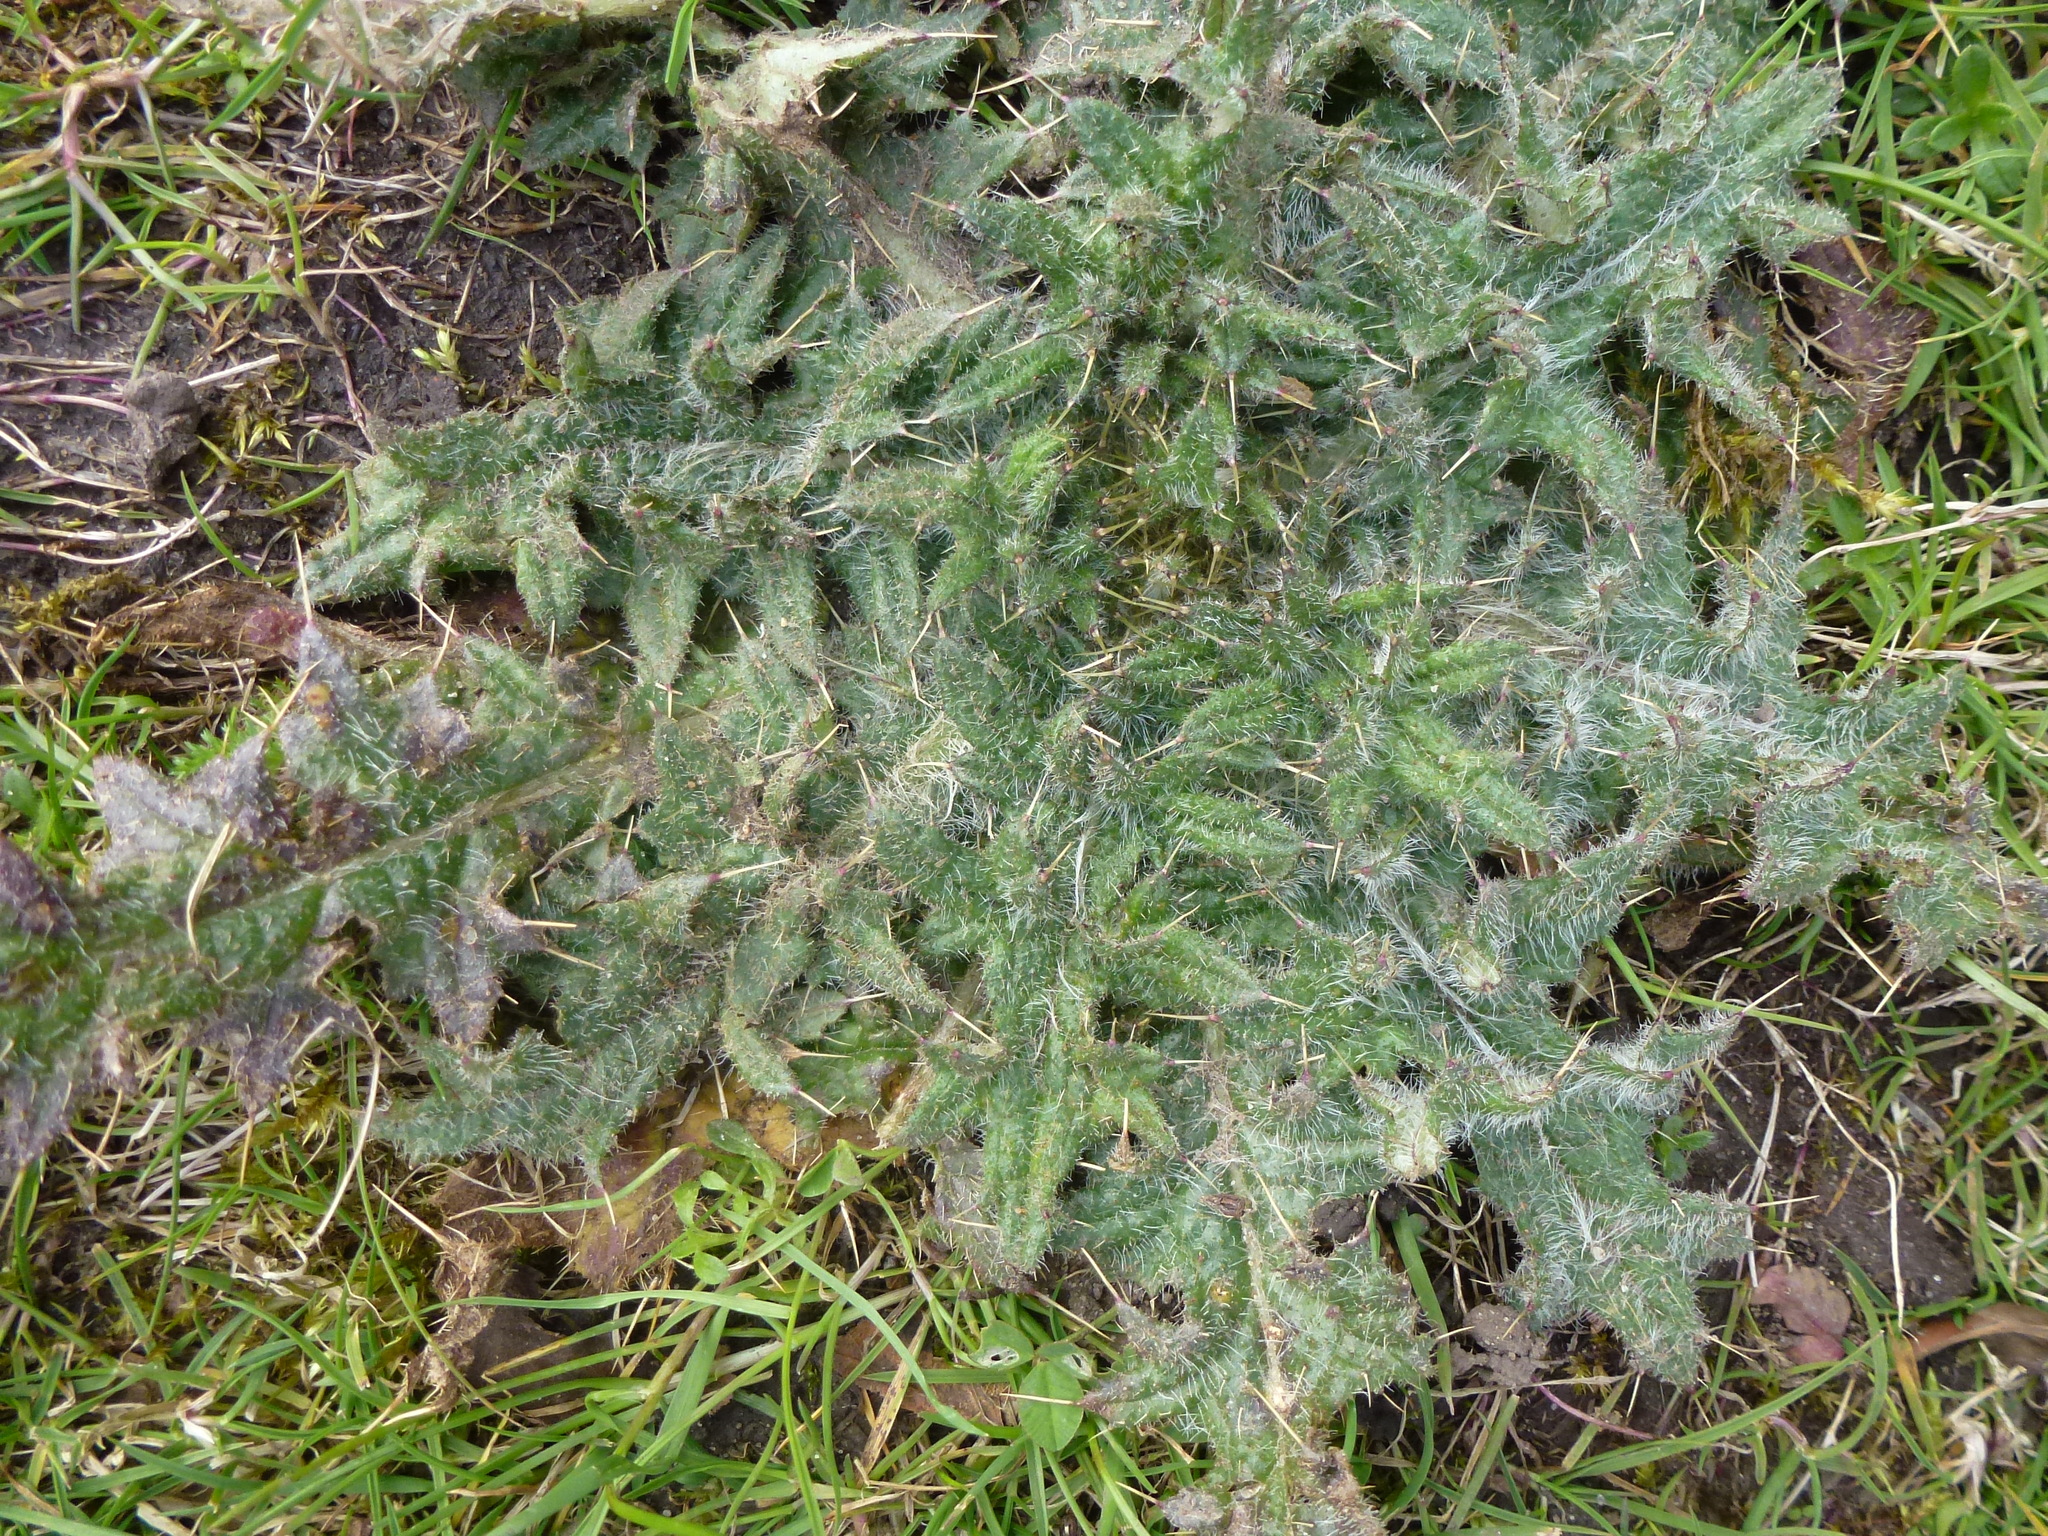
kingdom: Plantae
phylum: Tracheophyta
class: Magnoliopsida
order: Asterales
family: Asteraceae
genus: Cirsium
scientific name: Cirsium vulgare
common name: Bull thistle
